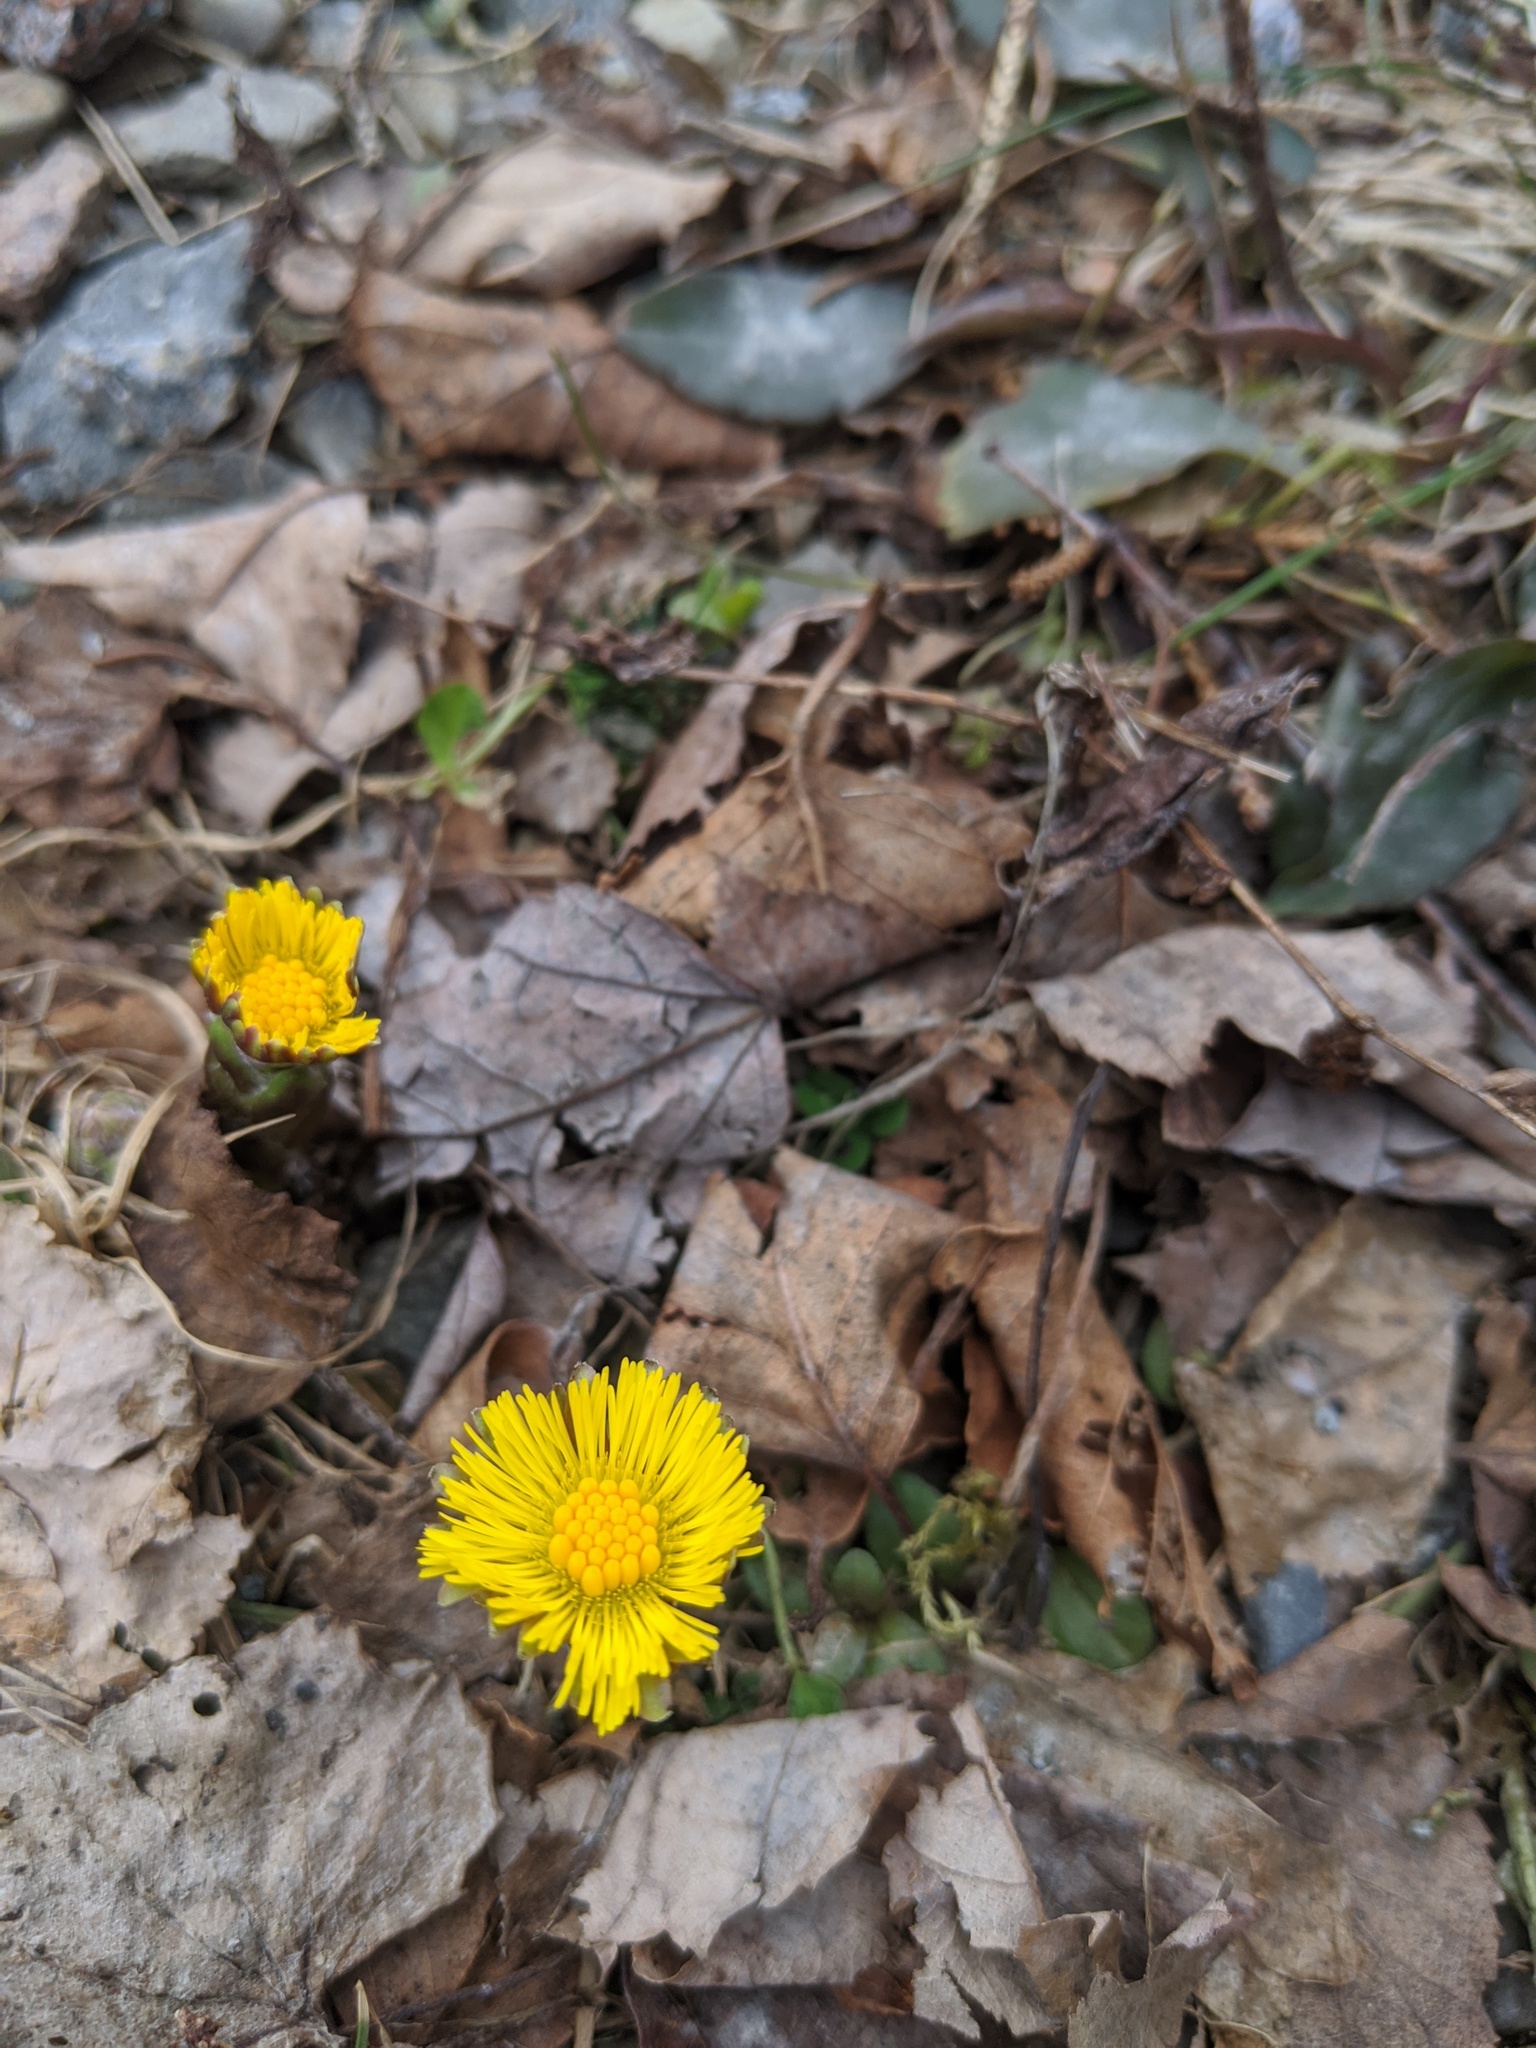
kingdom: Plantae
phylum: Tracheophyta
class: Magnoliopsida
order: Asterales
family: Asteraceae
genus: Tussilago
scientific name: Tussilago farfara
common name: Coltsfoot
